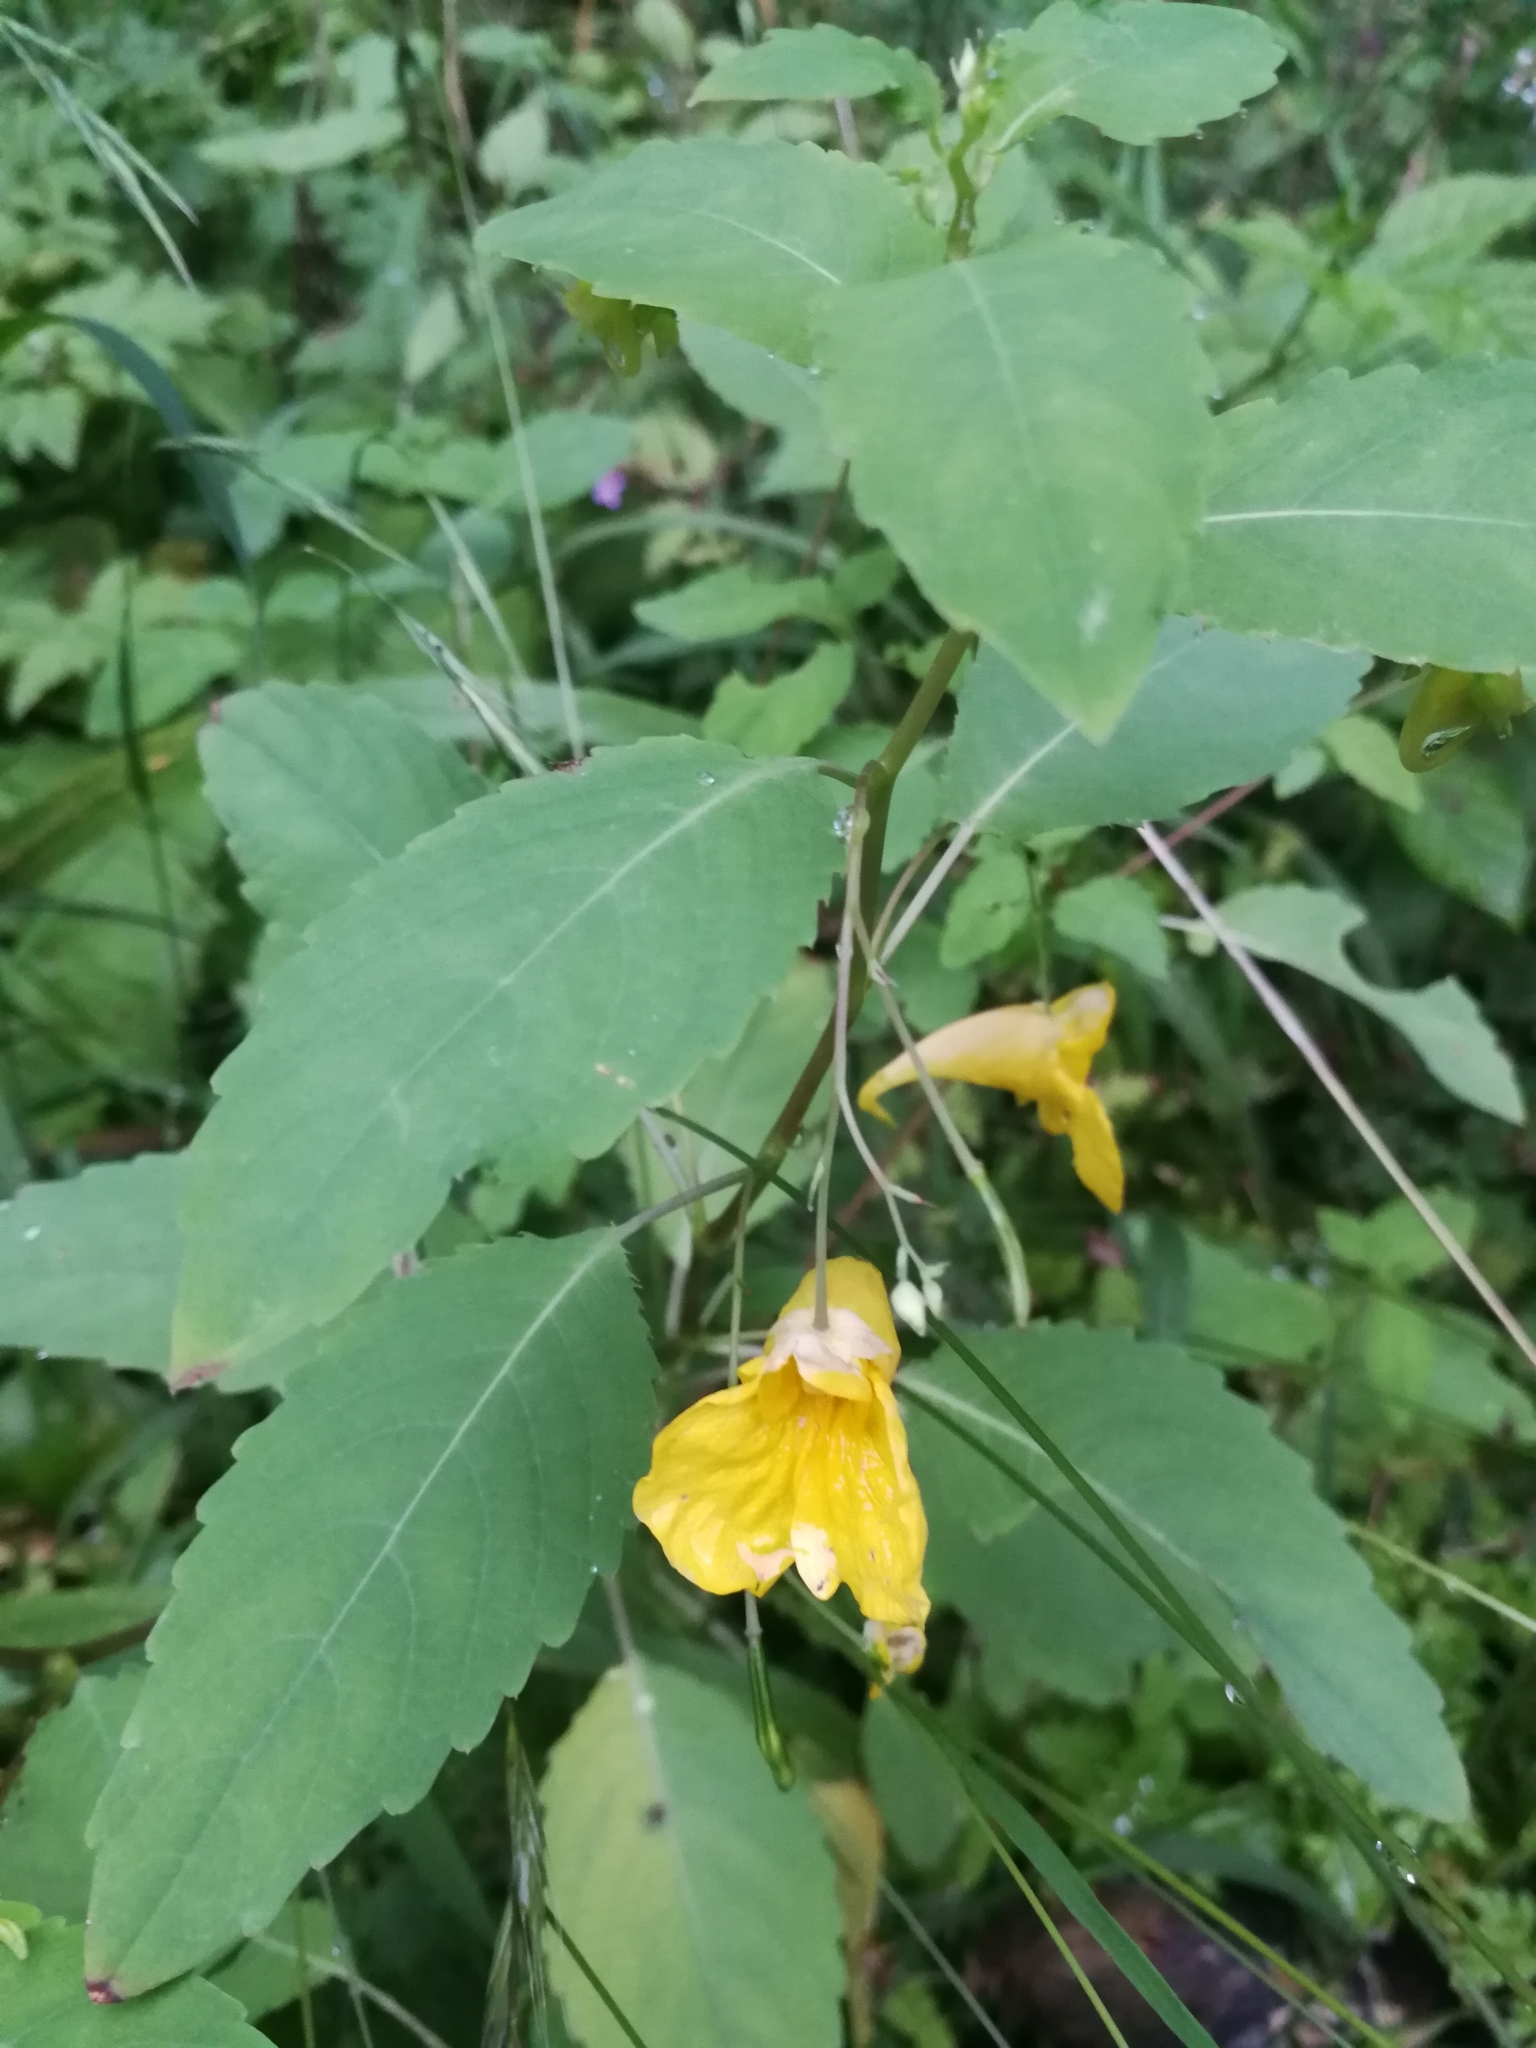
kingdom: Plantae
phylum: Tracheophyta
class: Magnoliopsida
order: Ericales
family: Balsaminaceae
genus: Impatiens
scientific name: Impatiens noli-tangere
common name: Touch-me-not balsam
